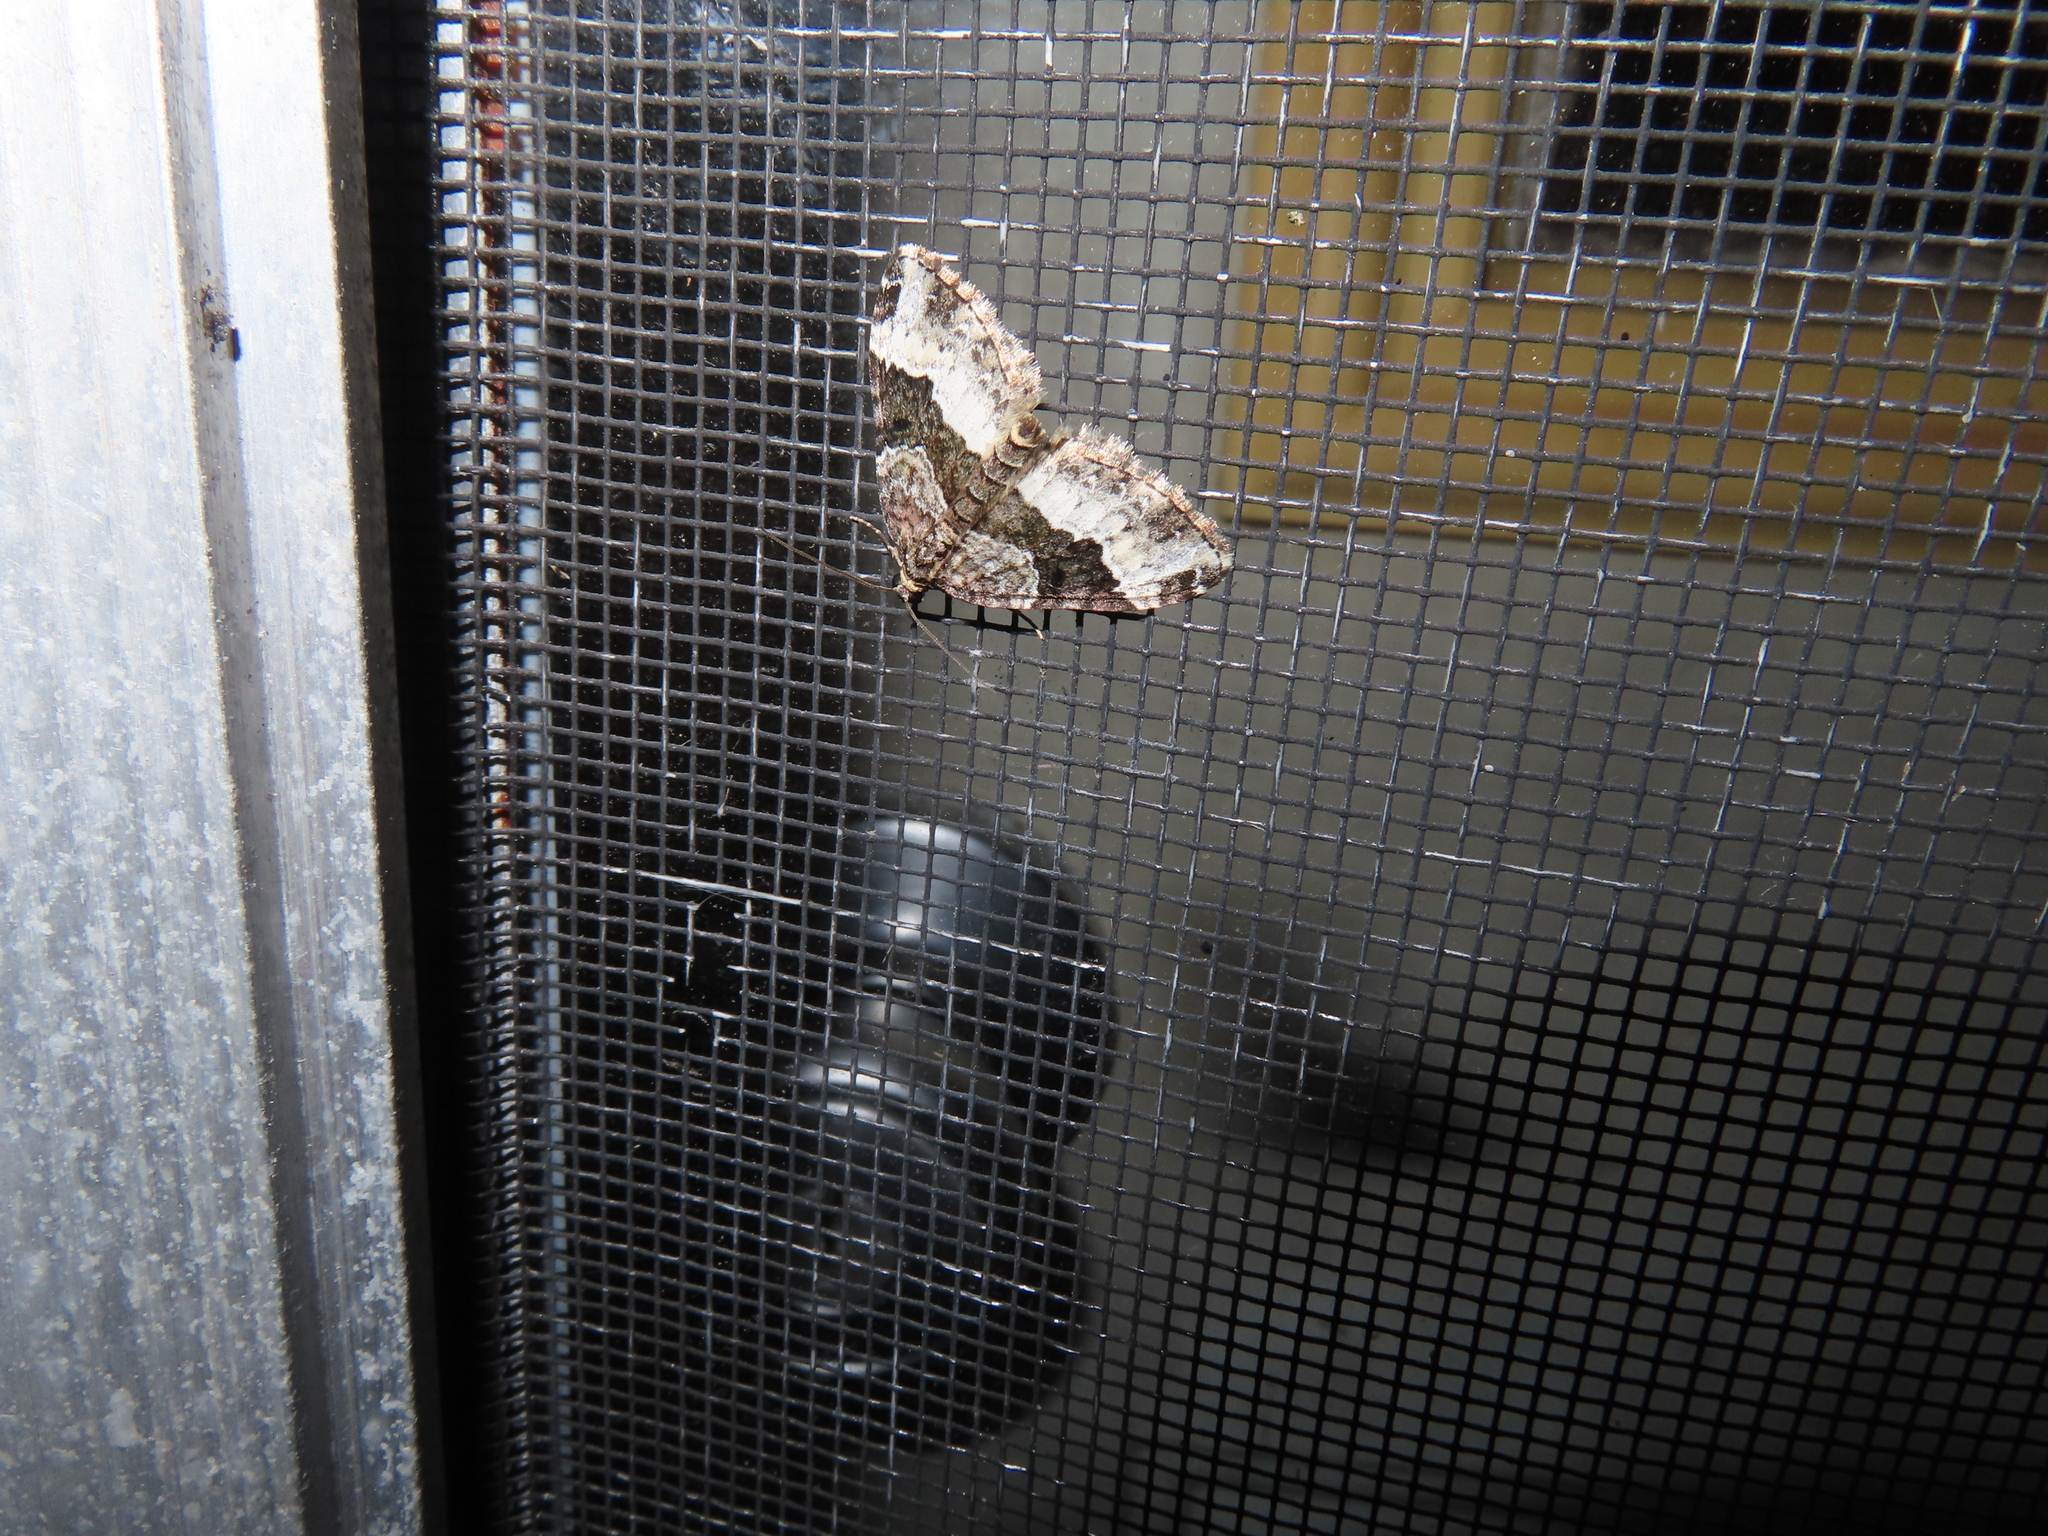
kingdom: Animalia
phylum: Arthropoda
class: Insecta
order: Lepidoptera
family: Geometridae
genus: Euphyia
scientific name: Euphyia intermediata
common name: Sharp-angled carpet
